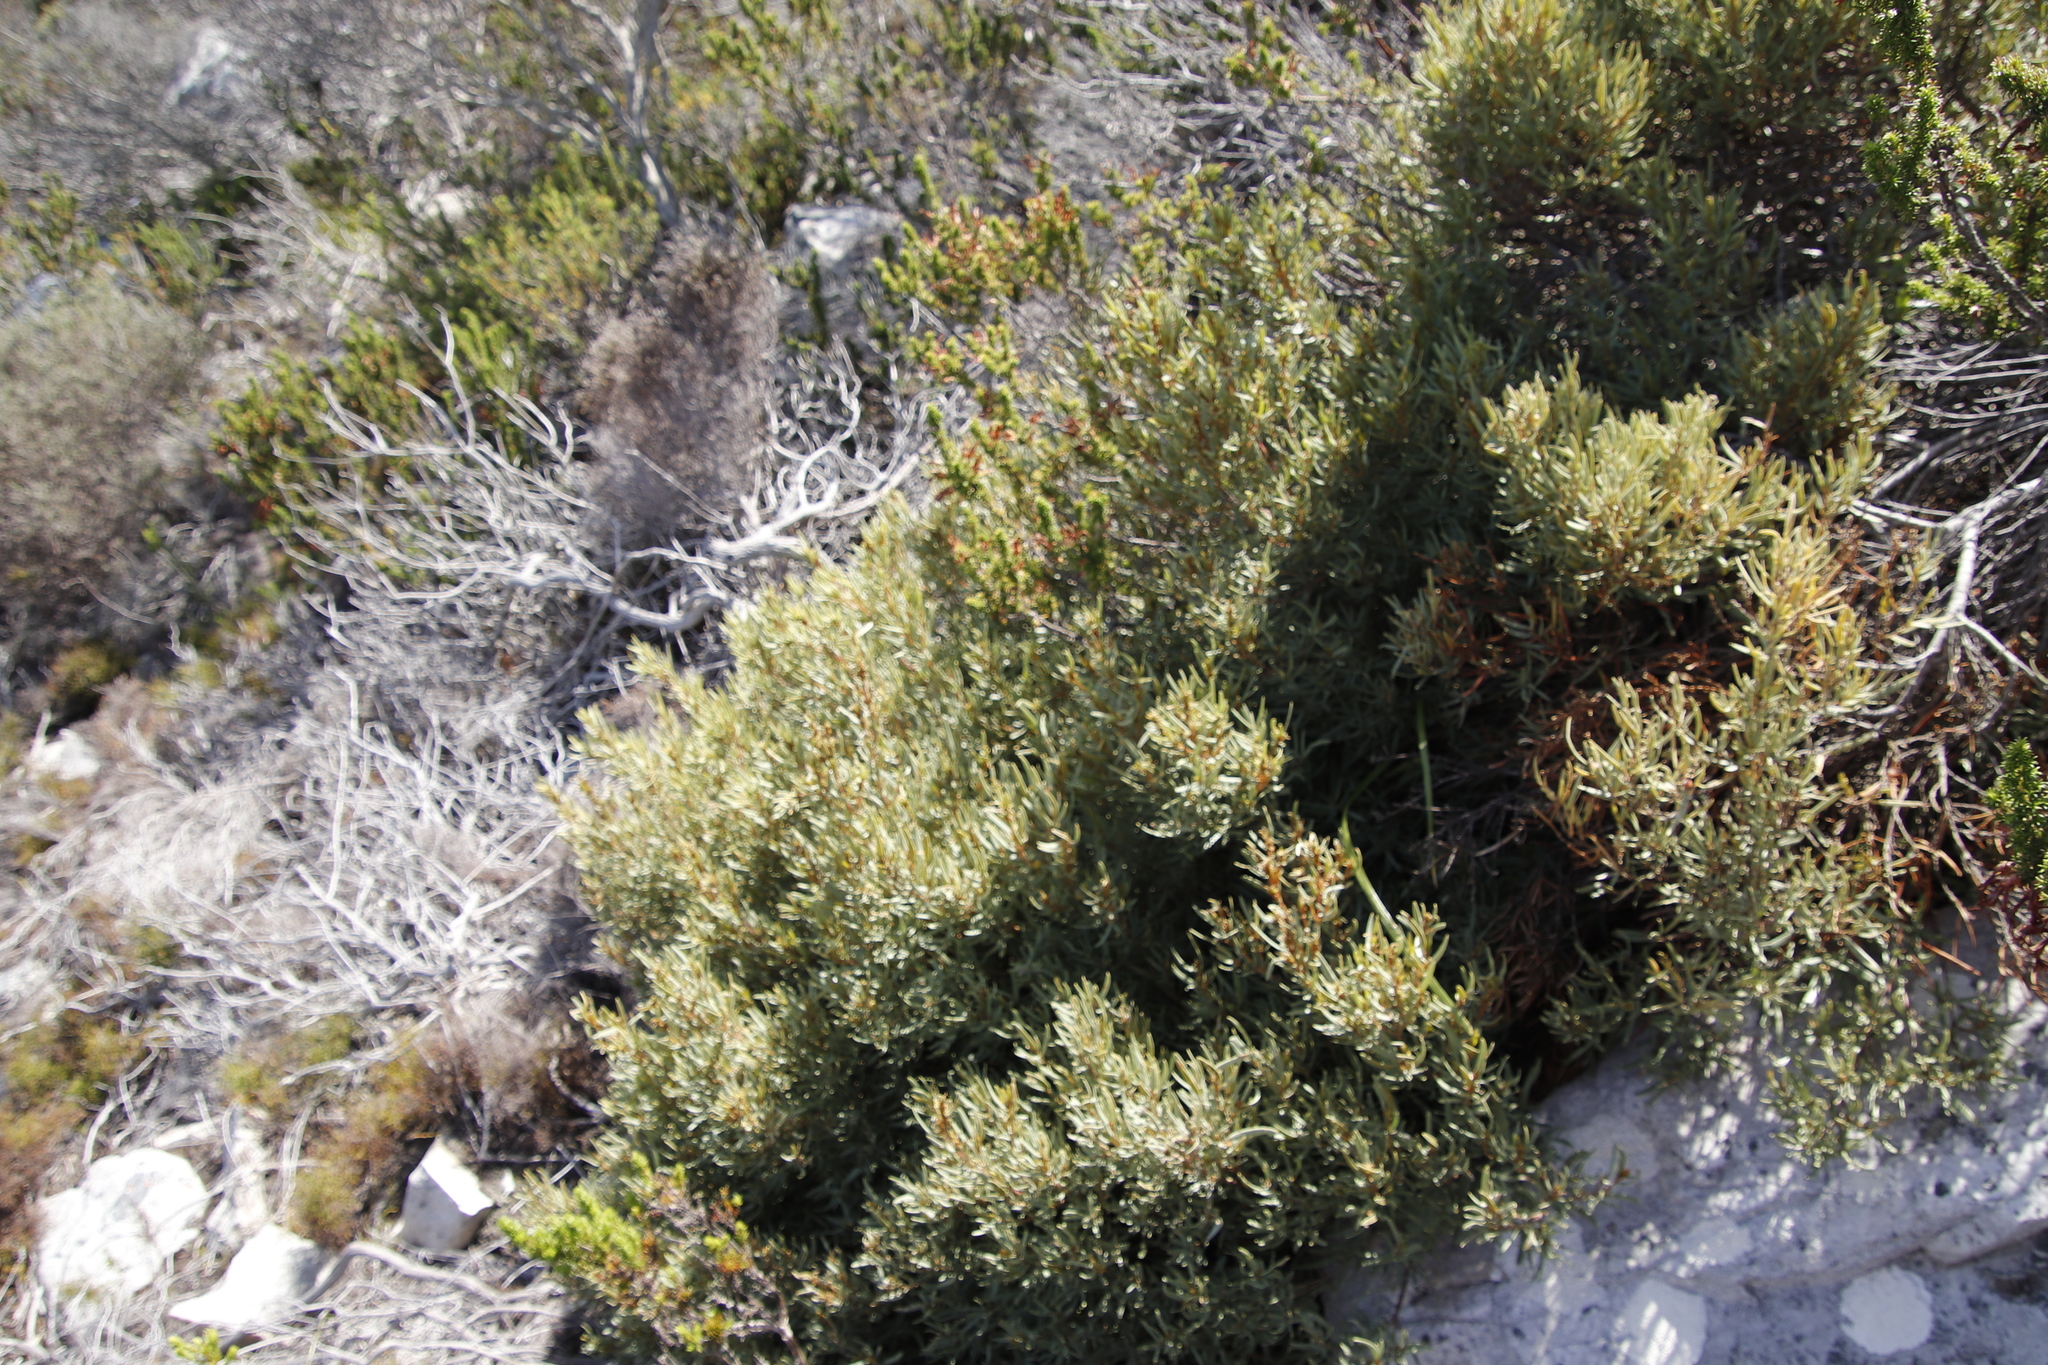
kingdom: Plantae
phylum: Tracheophyta
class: Magnoliopsida
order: Cornales
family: Grubbiaceae
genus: Grubbia
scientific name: Grubbia tomentosa
